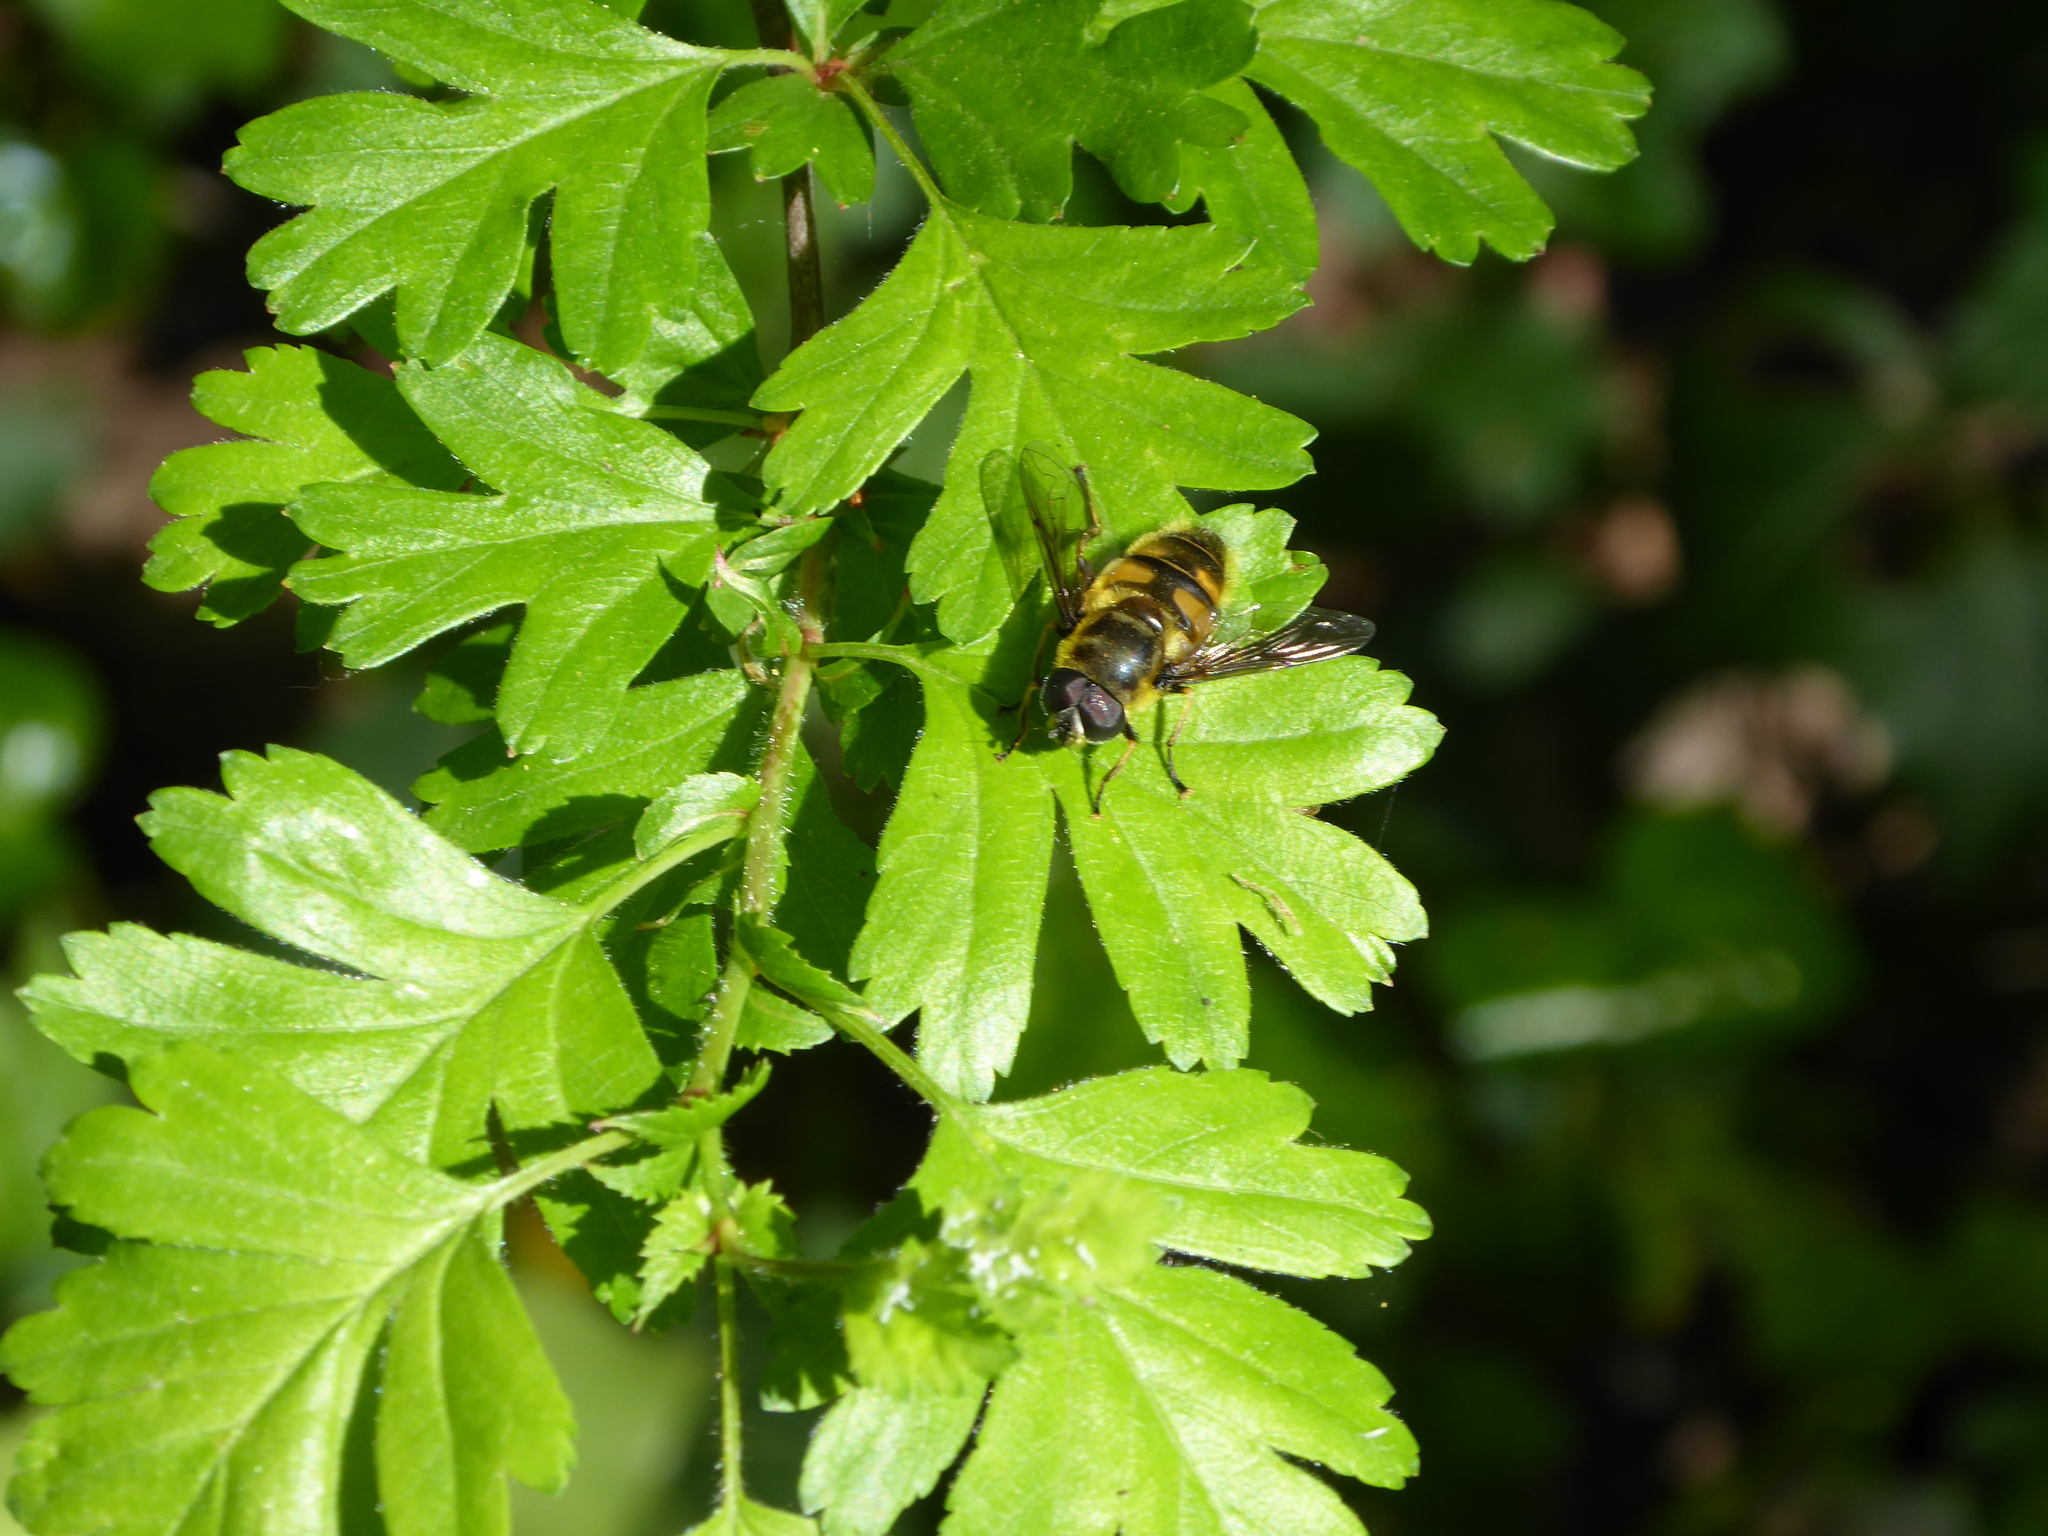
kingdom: Animalia
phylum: Arthropoda
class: Insecta
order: Diptera
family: Syrphidae
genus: Myathropa
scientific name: Myathropa florea
